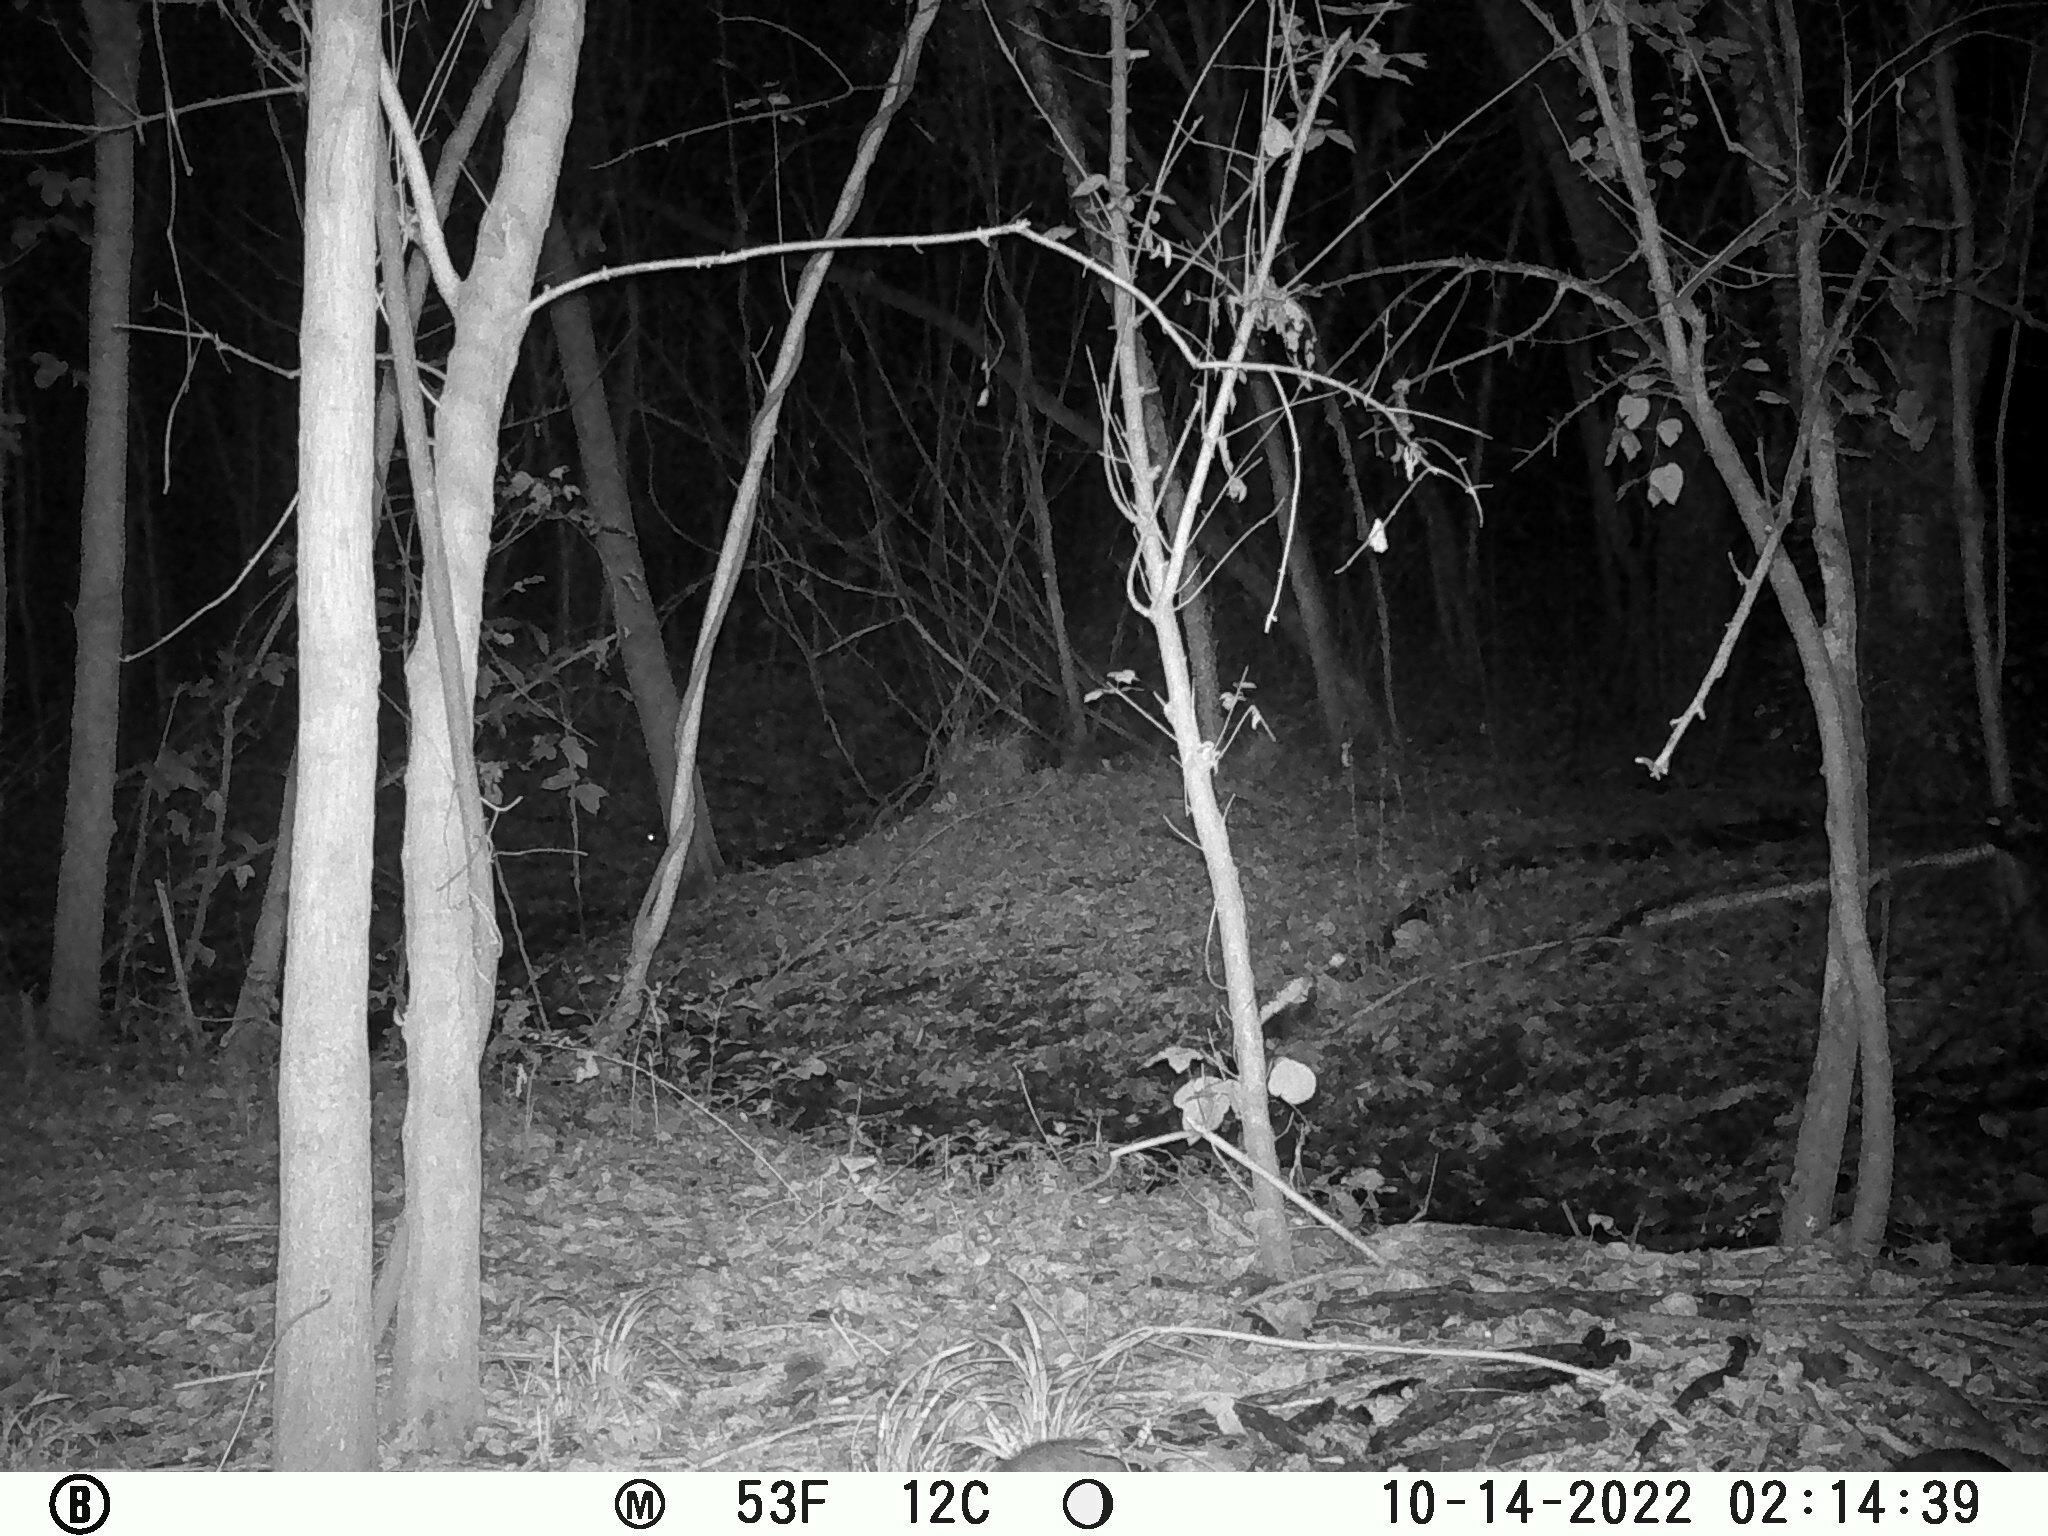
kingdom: Animalia
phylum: Chordata
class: Mammalia
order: Carnivora
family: Procyonidae
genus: Procyon
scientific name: Procyon lotor
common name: Raccoon
